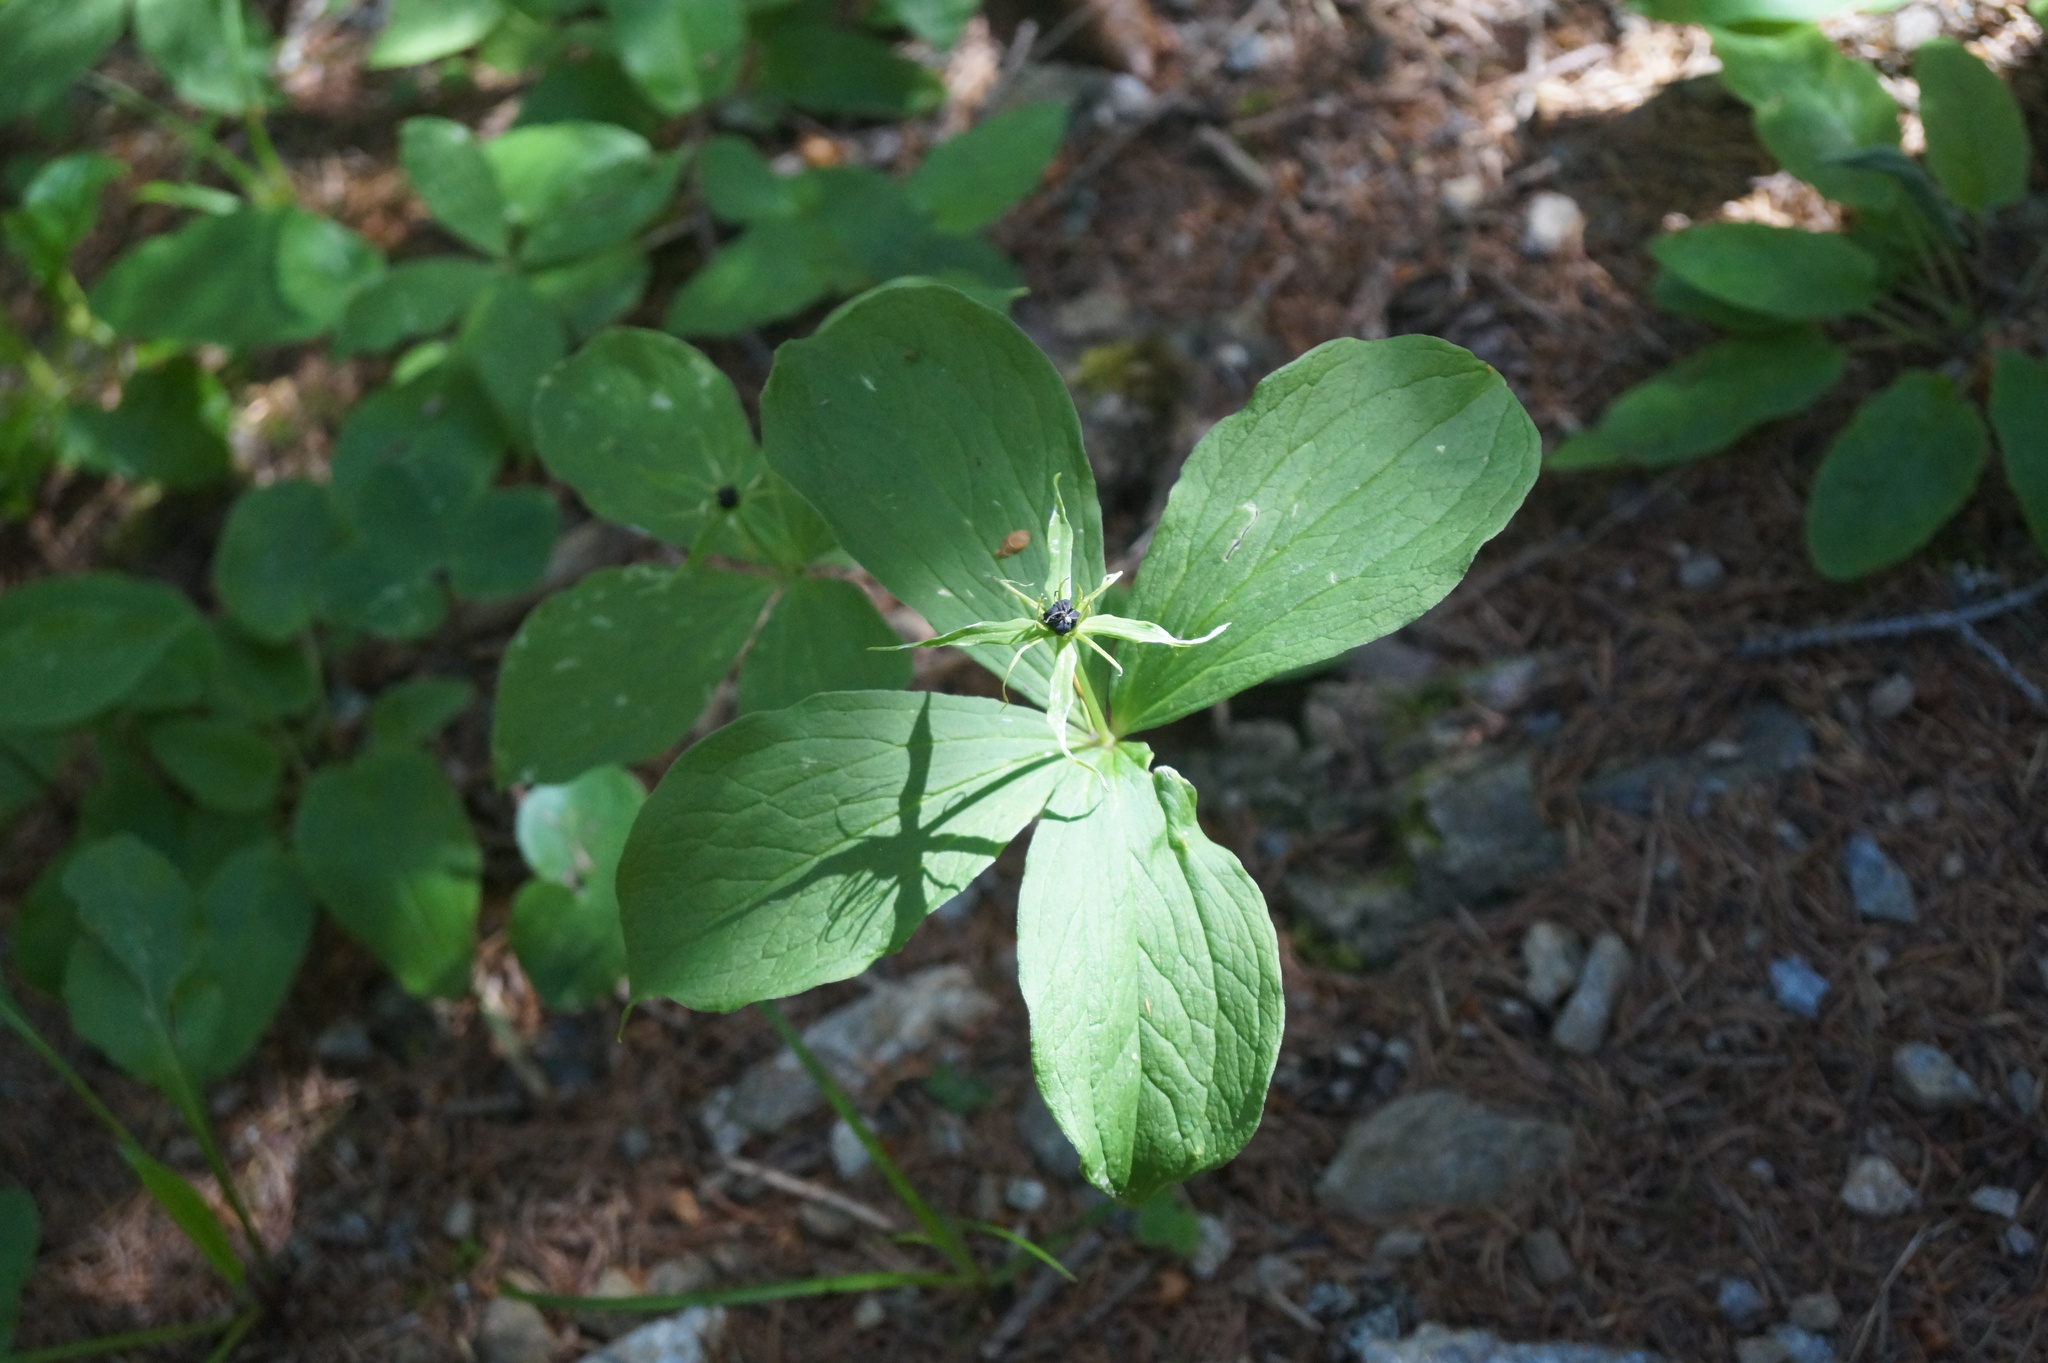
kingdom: Plantae
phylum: Tracheophyta
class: Liliopsida
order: Liliales
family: Melanthiaceae
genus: Paris
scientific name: Paris quadrifolia
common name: Herb-paris
